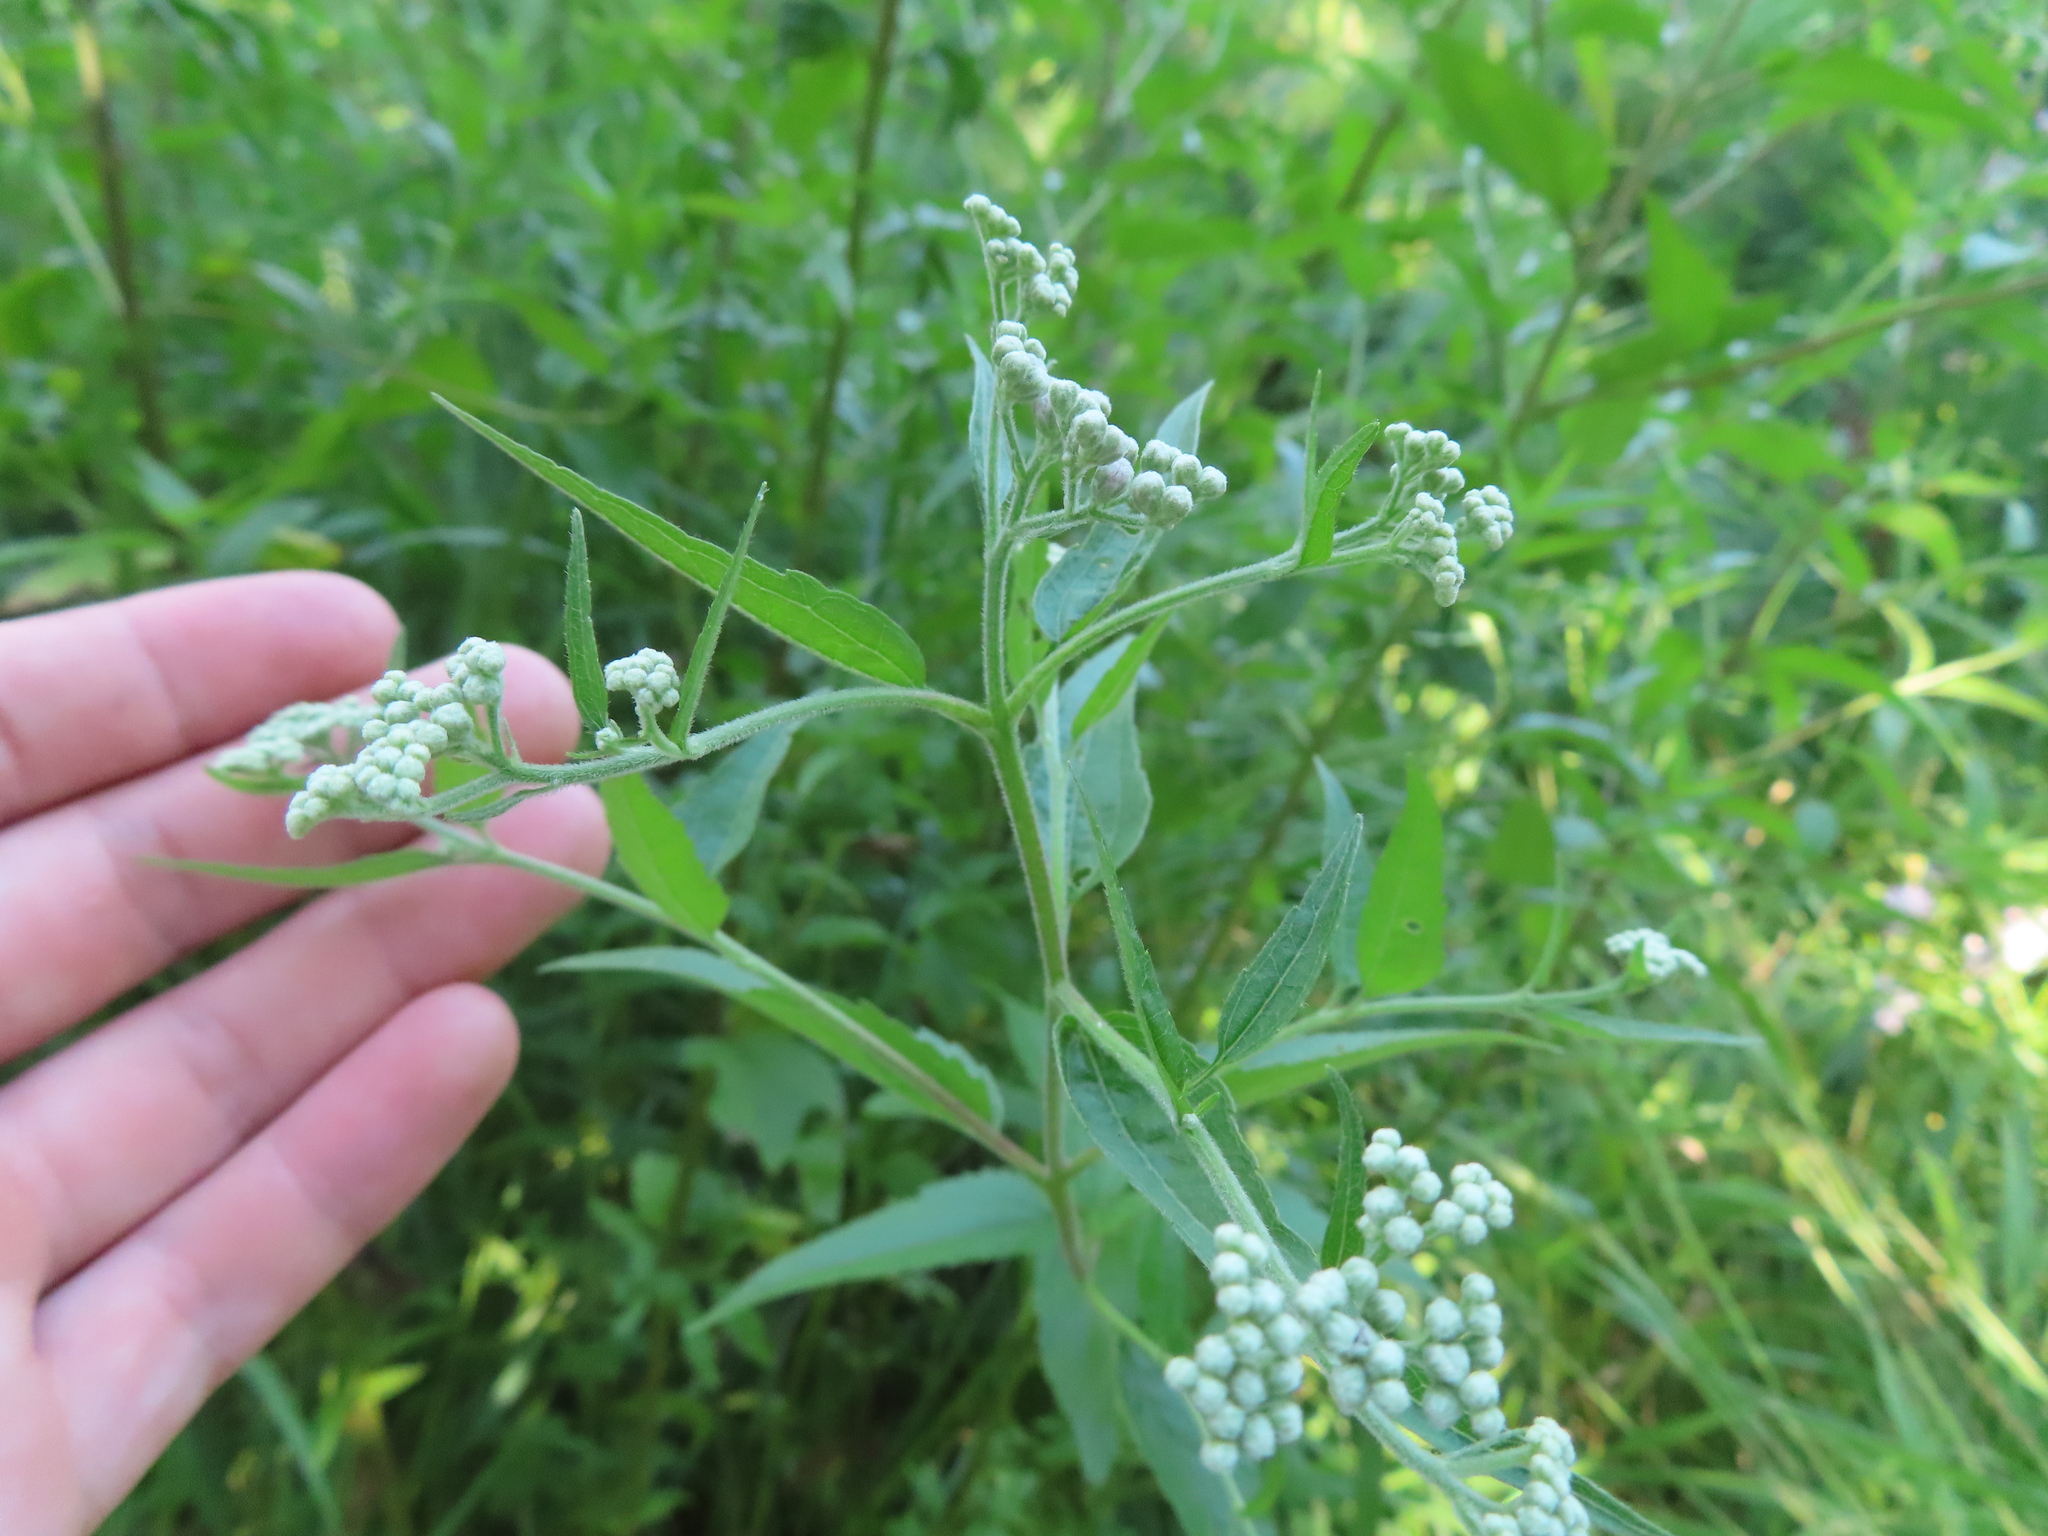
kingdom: Plantae
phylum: Tracheophyta
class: Magnoliopsida
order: Asterales
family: Asteraceae
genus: Eupatorium
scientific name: Eupatorium serotinum
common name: Late boneset
